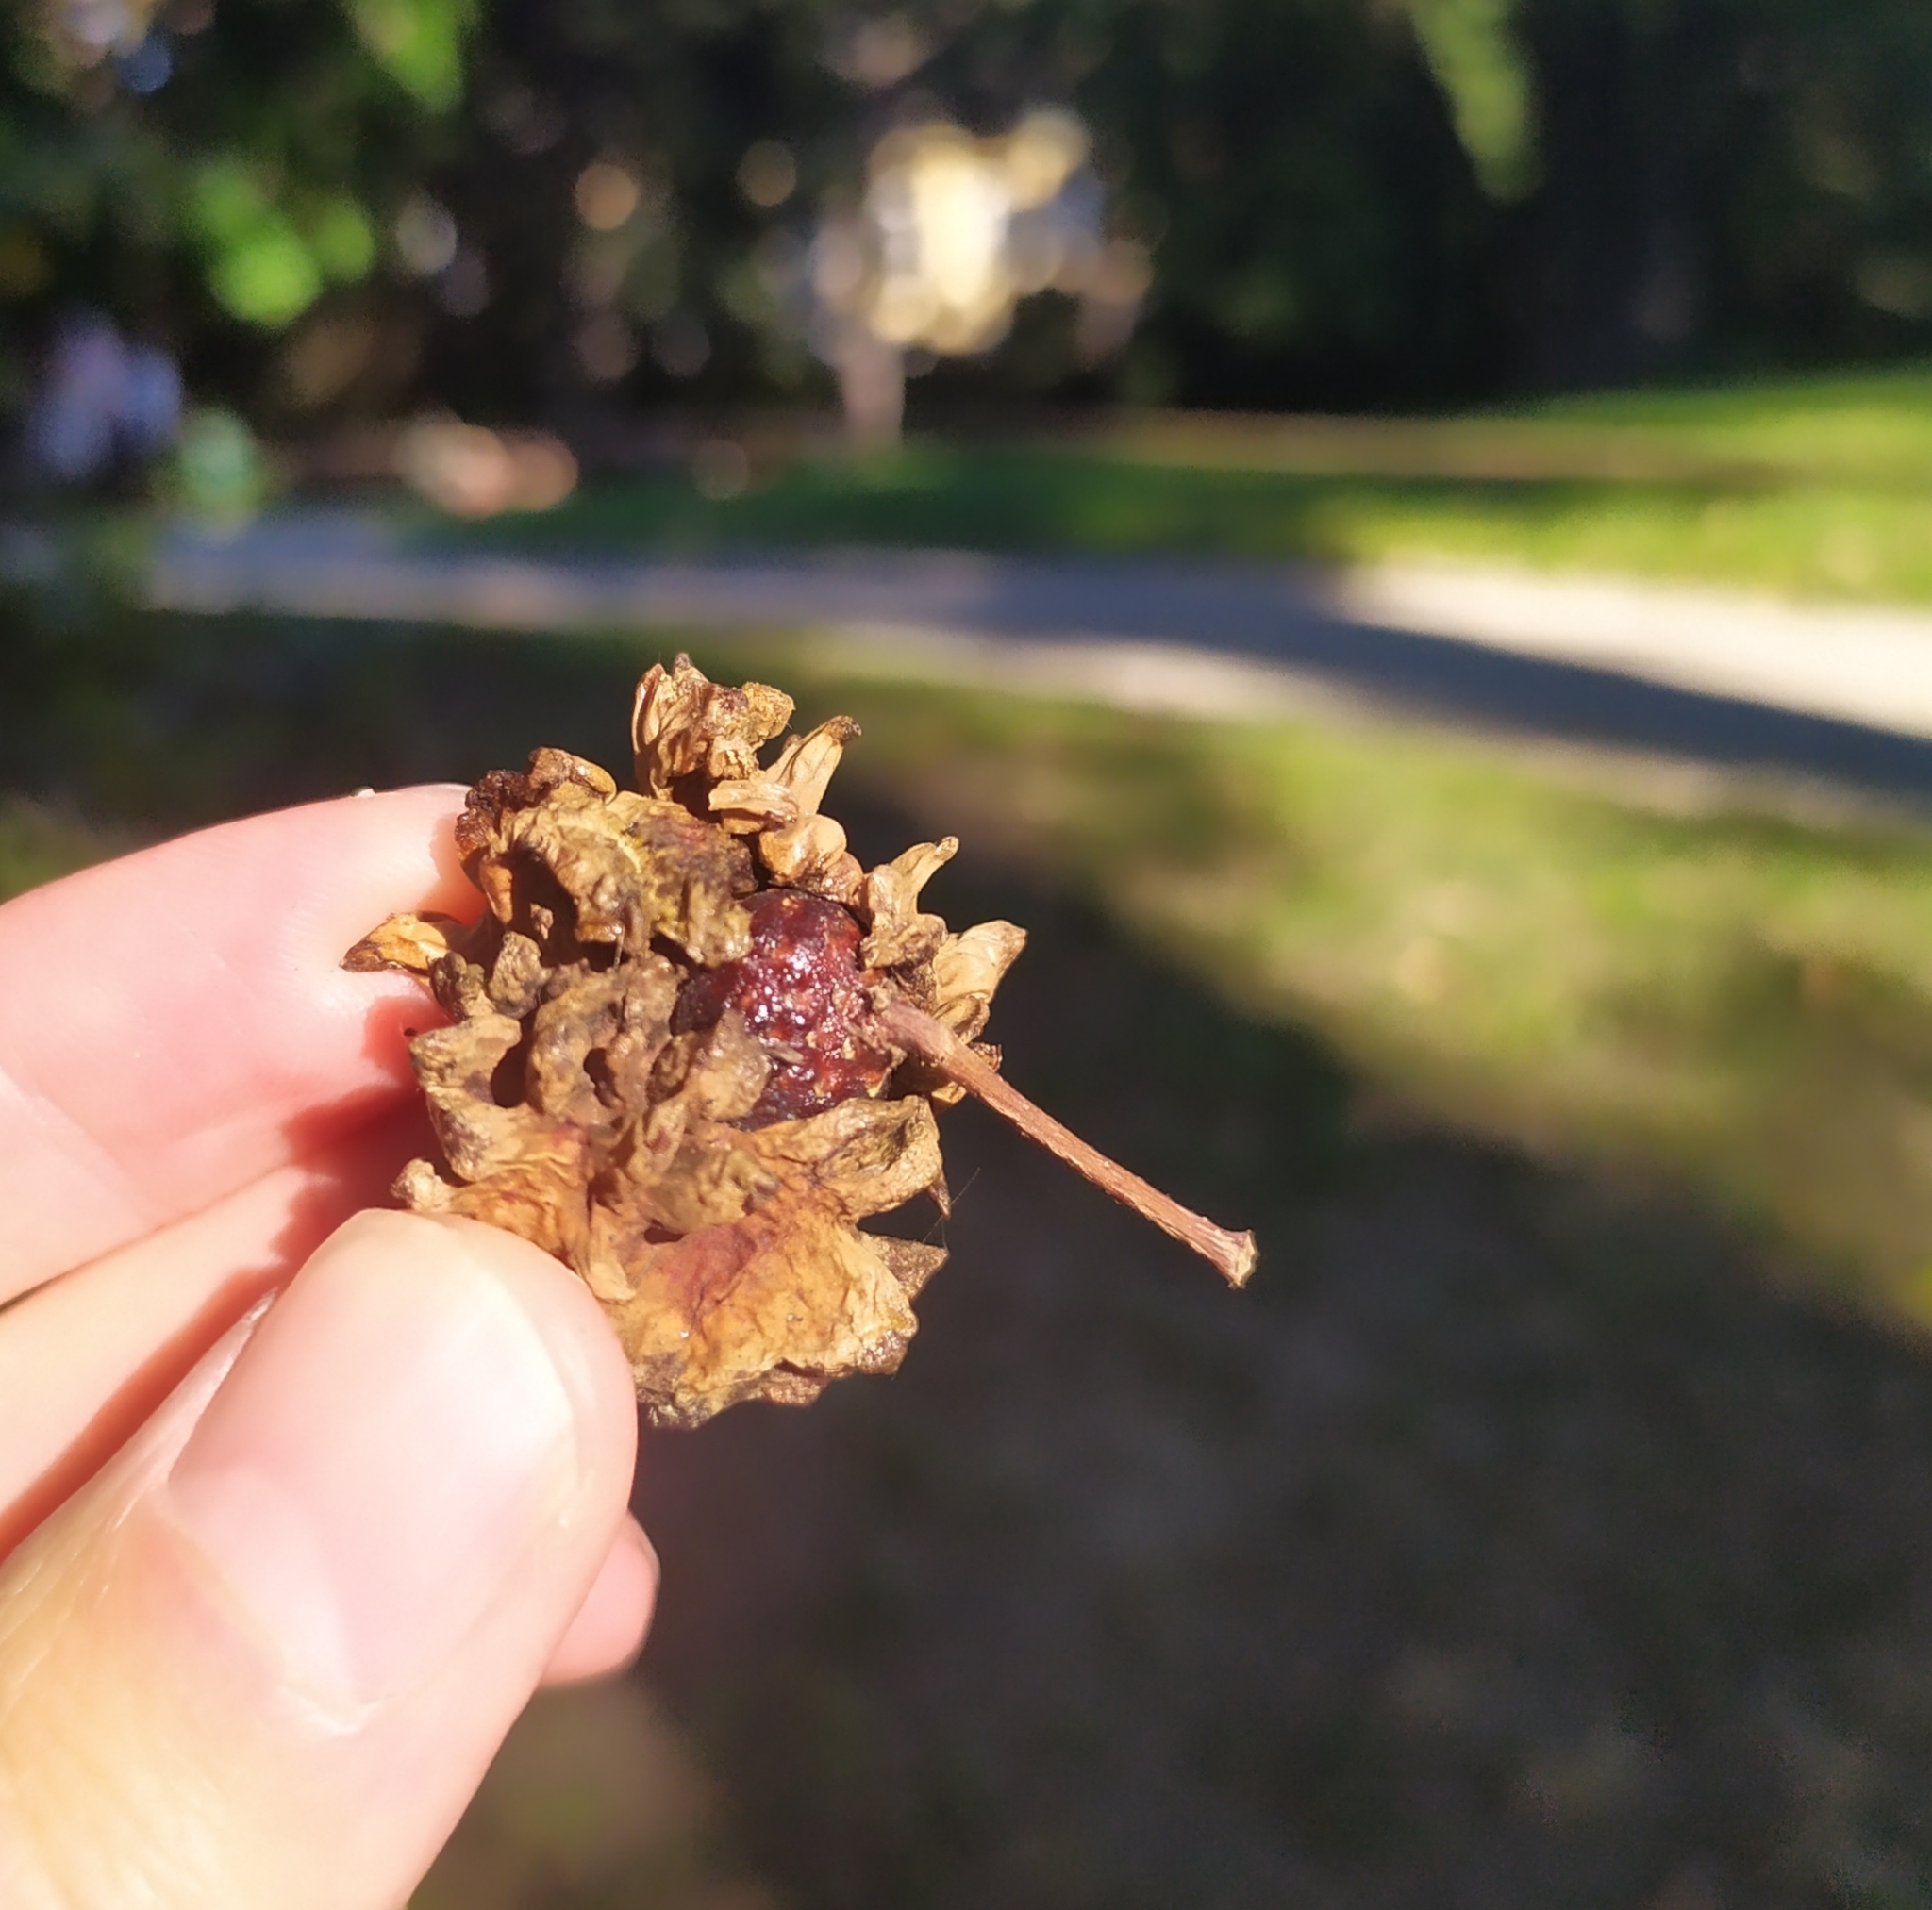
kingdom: Animalia
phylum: Arthropoda
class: Insecta
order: Hymenoptera
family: Cynipidae
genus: Andricus
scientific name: Andricus quercuscalicis
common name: Knopper gall
